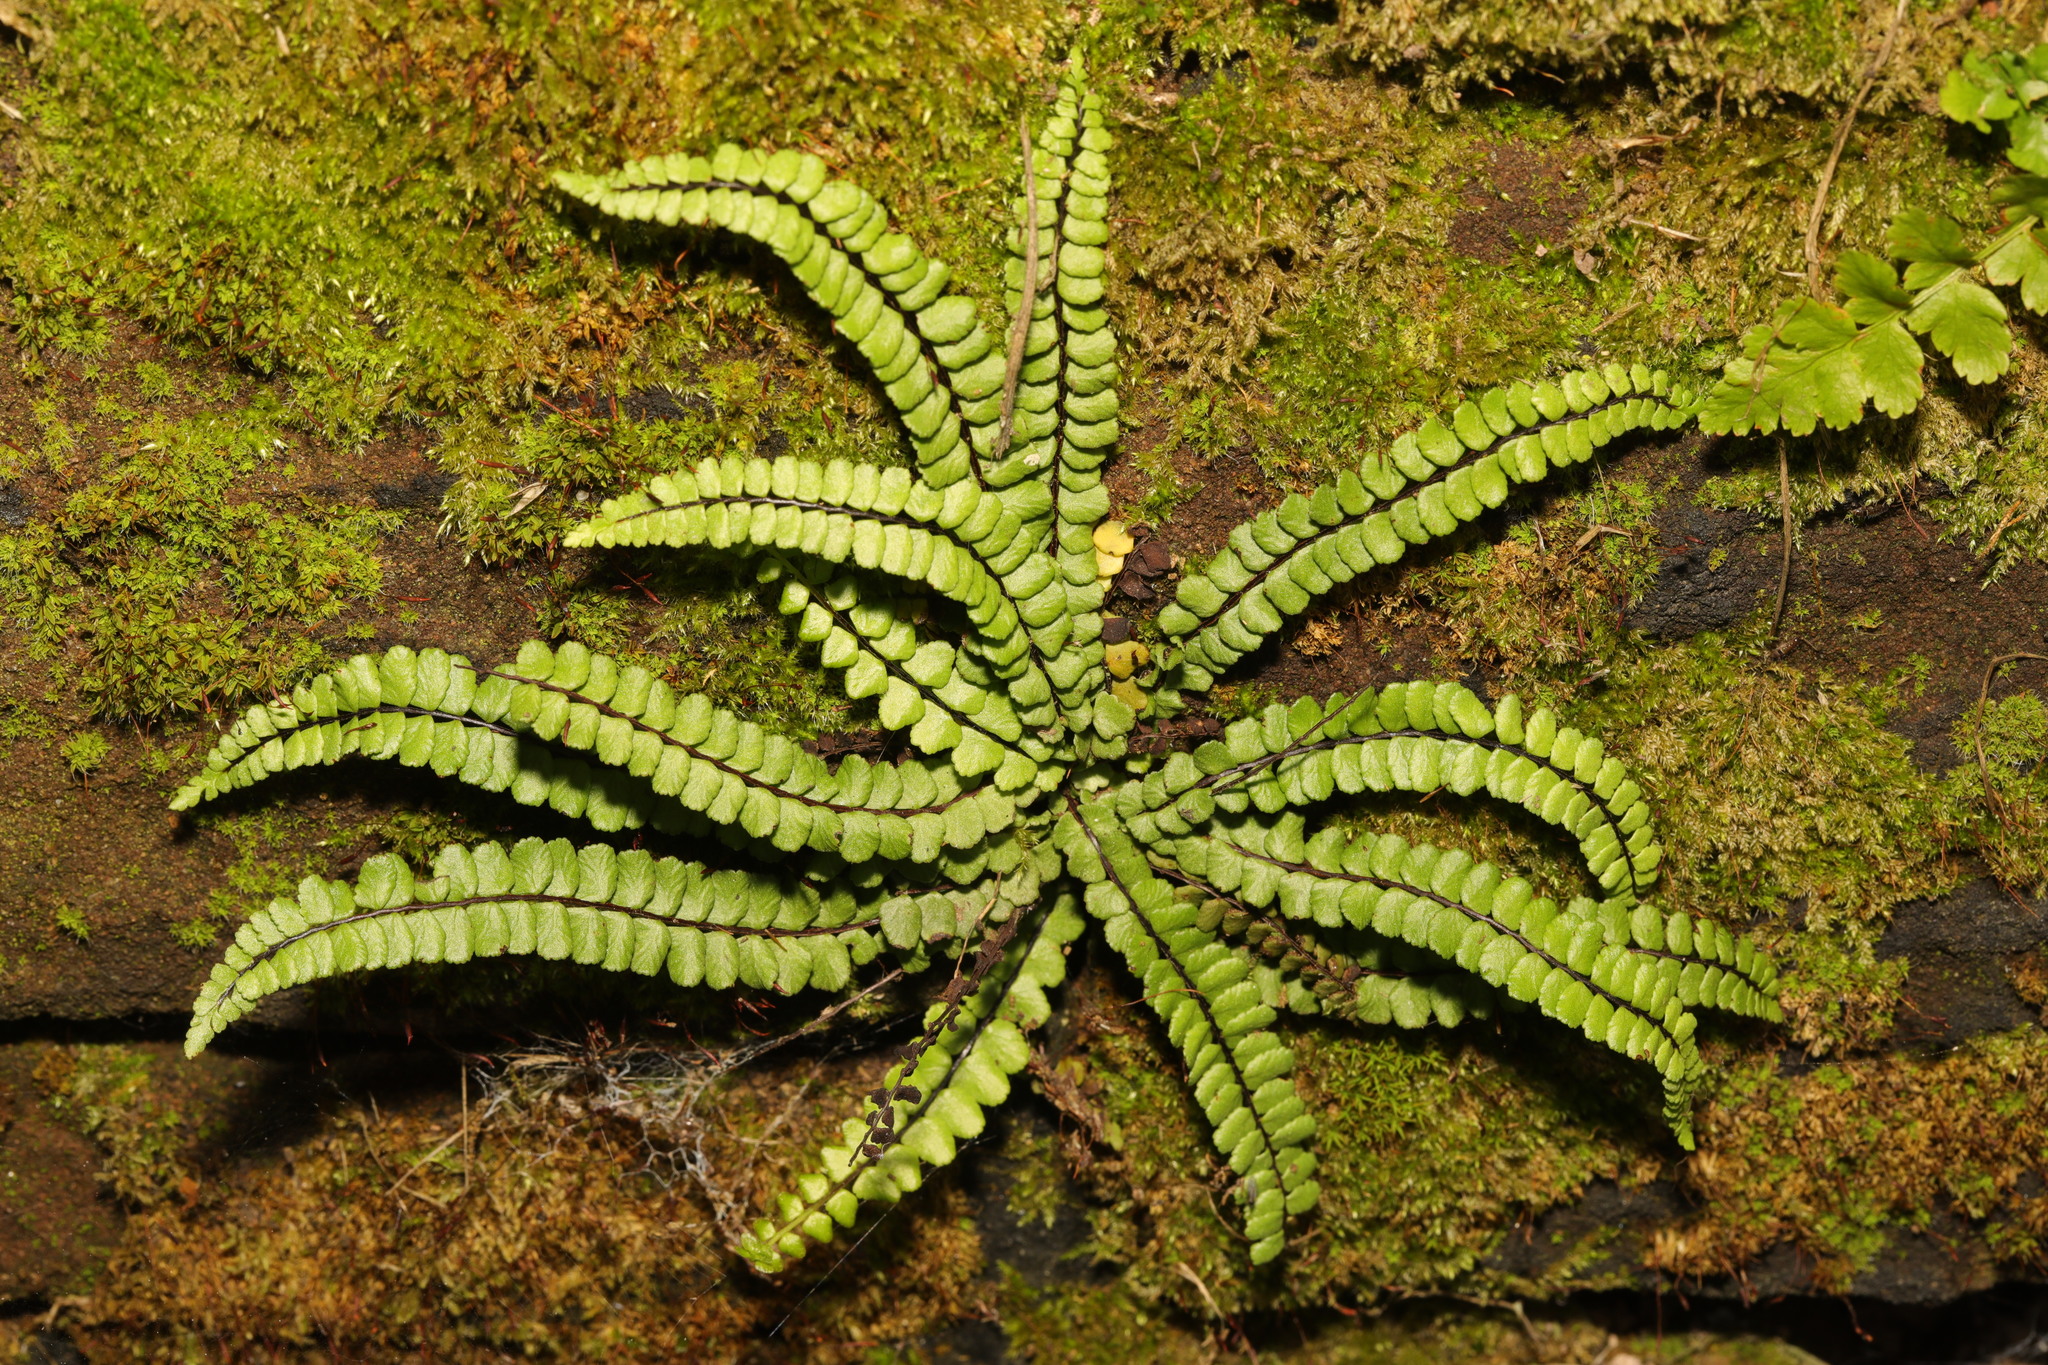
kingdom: Plantae
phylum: Tracheophyta
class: Polypodiopsida
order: Polypodiales
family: Aspleniaceae
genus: Asplenium
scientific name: Asplenium trichomanes
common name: Maidenhair spleenwort
